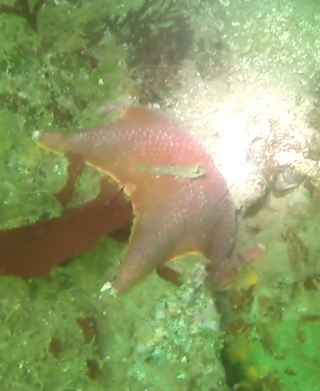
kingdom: Animalia
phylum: Chordata
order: Perciformes
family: Gobiidae
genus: Rhinogobiops
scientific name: Rhinogobiops nicholsii
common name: Blackeye goby
